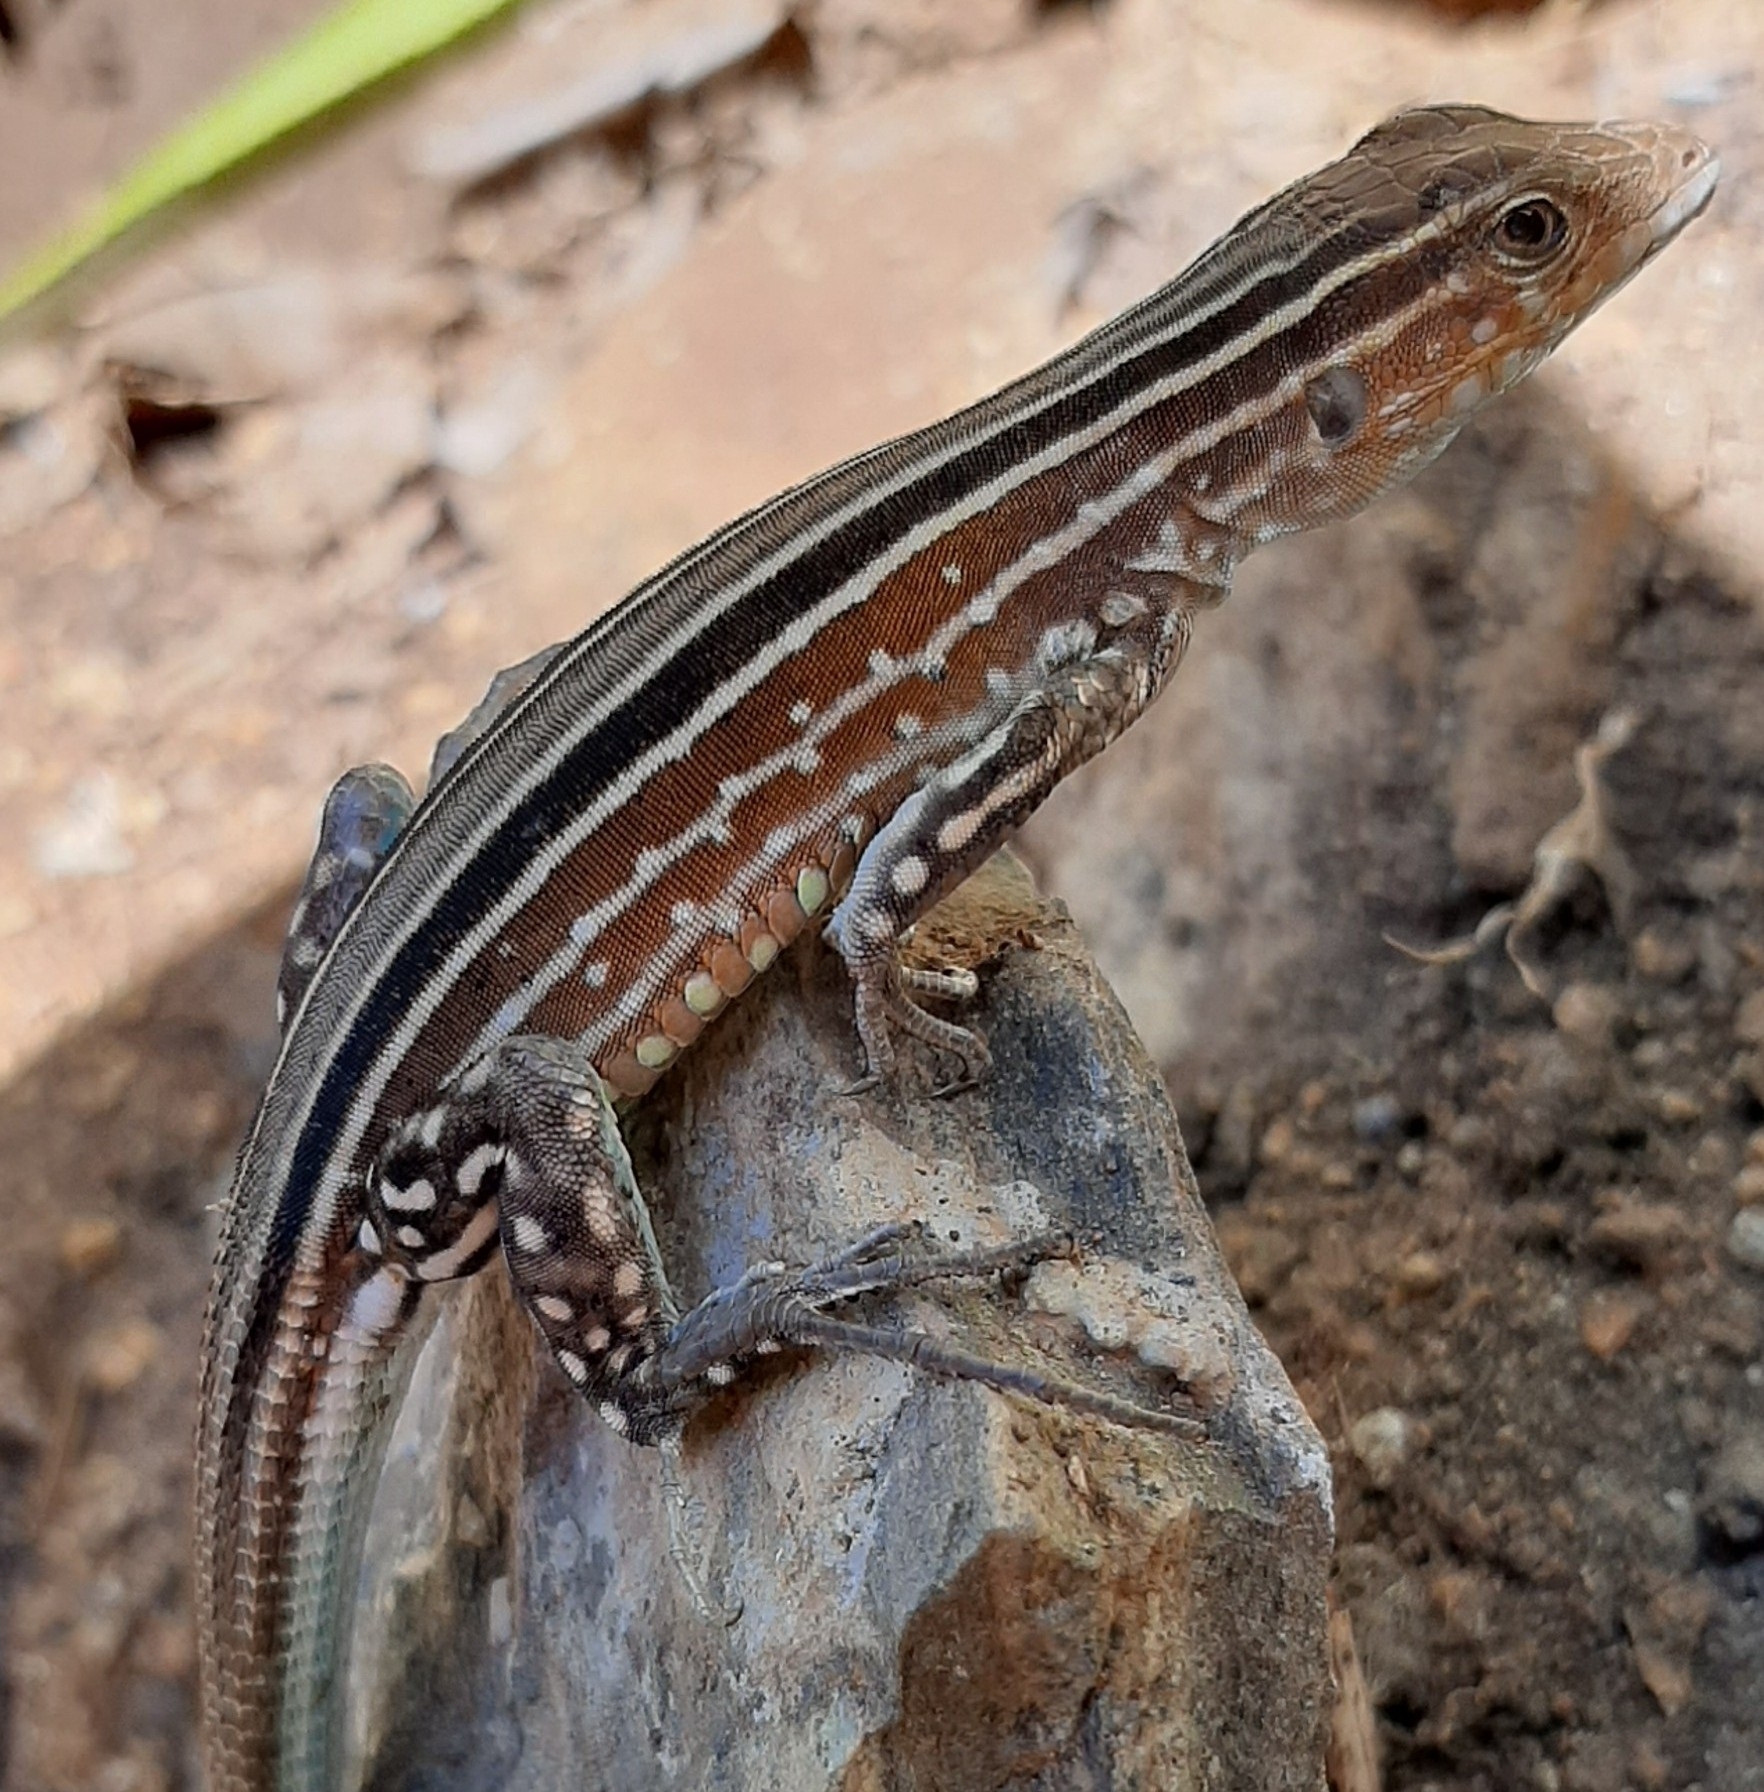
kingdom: Animalia
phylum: Chordata
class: Squamata
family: Teiidae
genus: Cnemidophorus
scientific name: Cnemidophorus gaigei
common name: Gaige’s rainbow lizard
